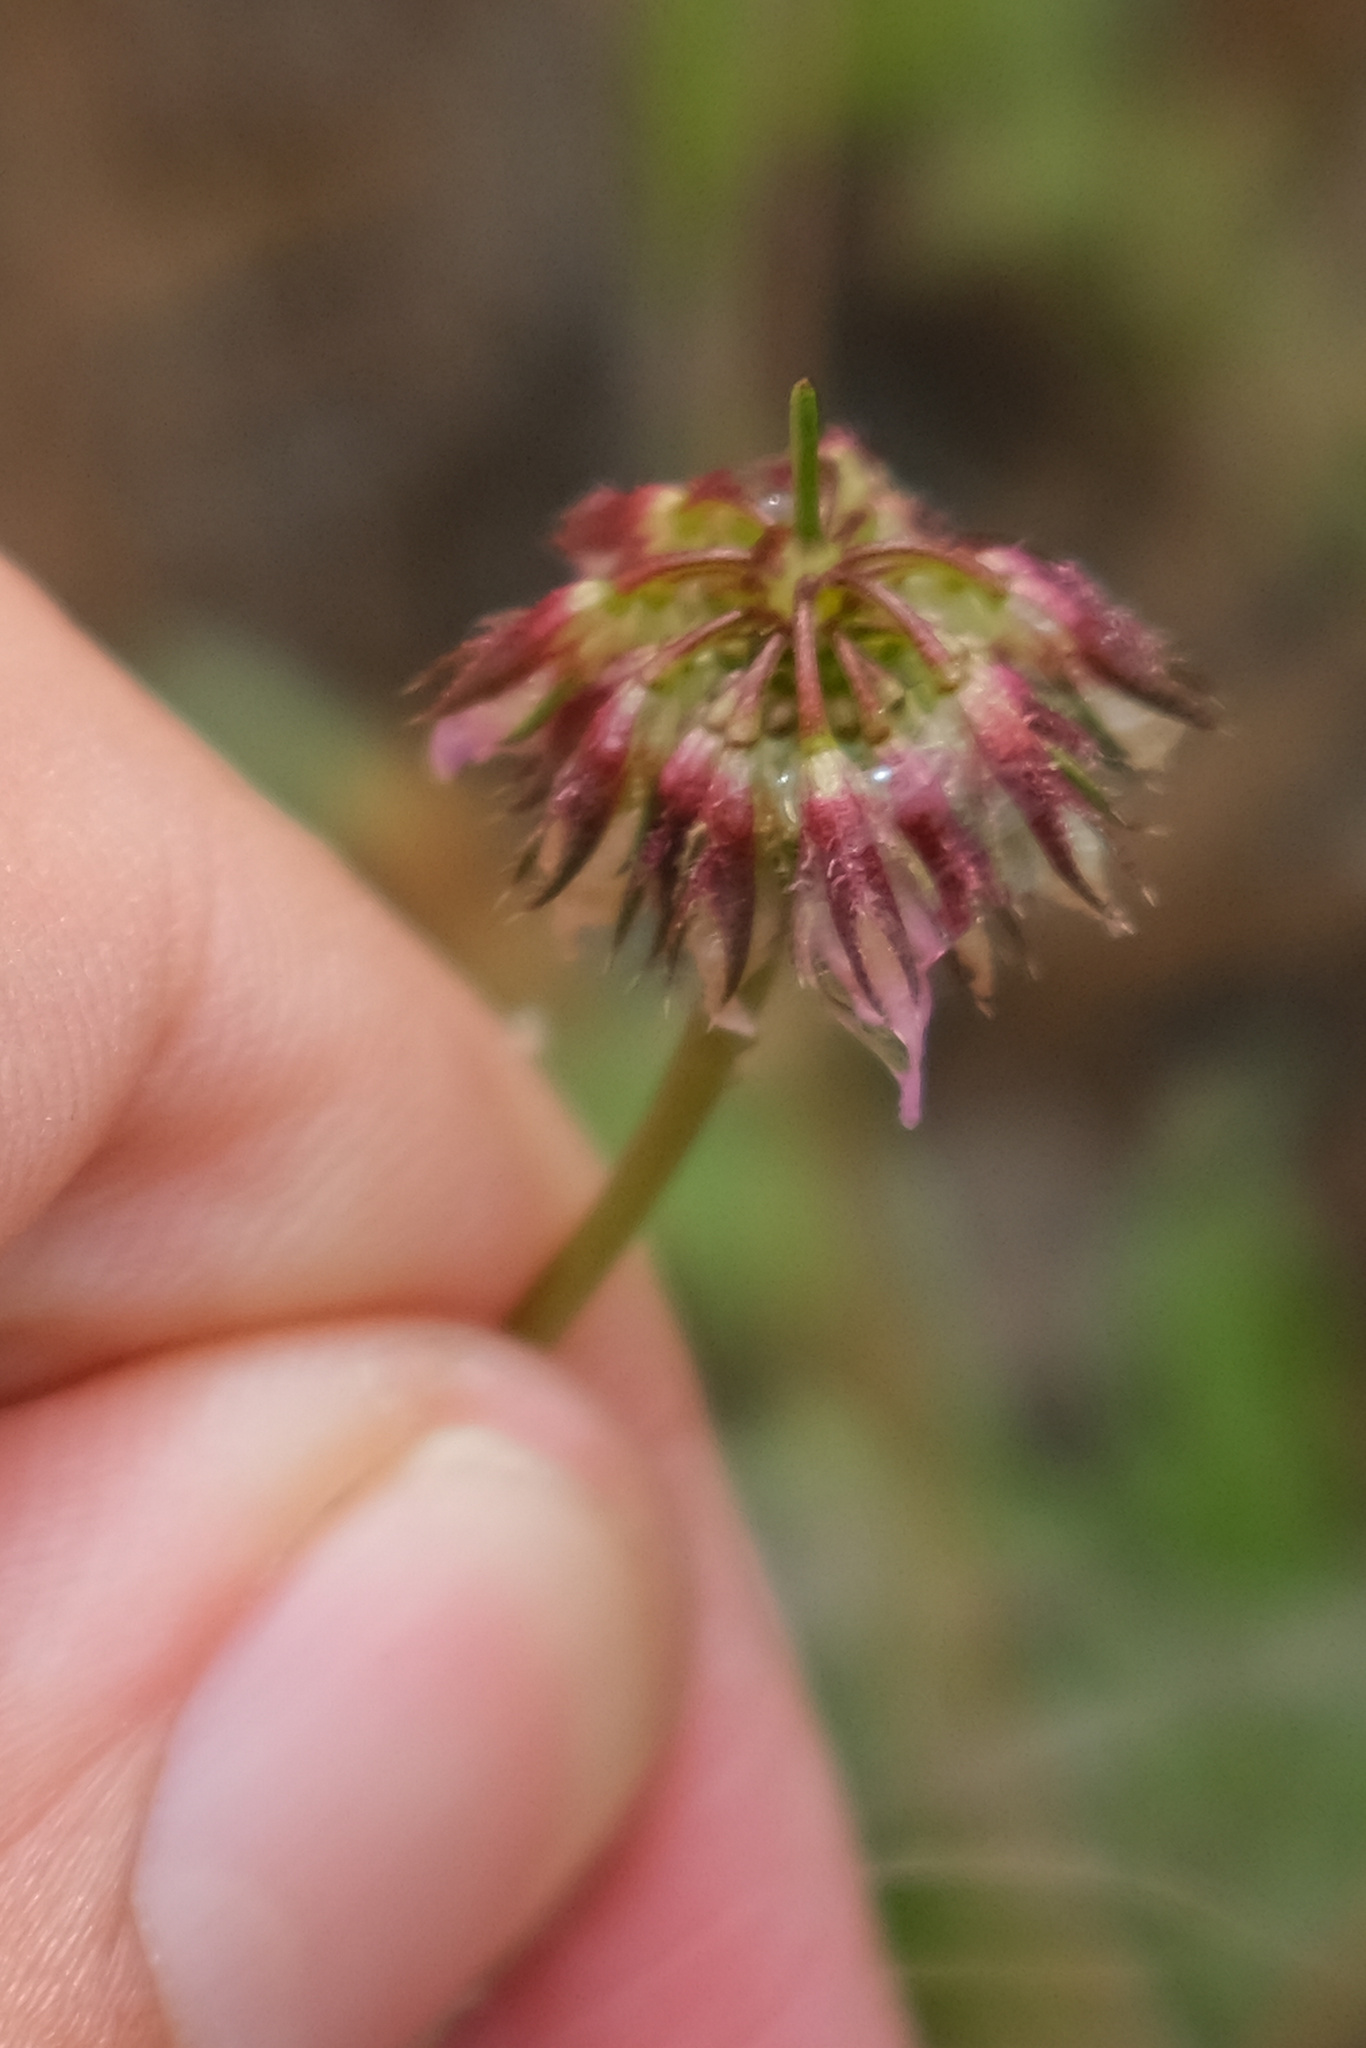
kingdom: Plantae
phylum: Tracheophyta
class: Magnoliopsida
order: Fabales
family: Fabaceae
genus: Trifolium
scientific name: Trifolium ciliolatum
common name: Foothill clover
